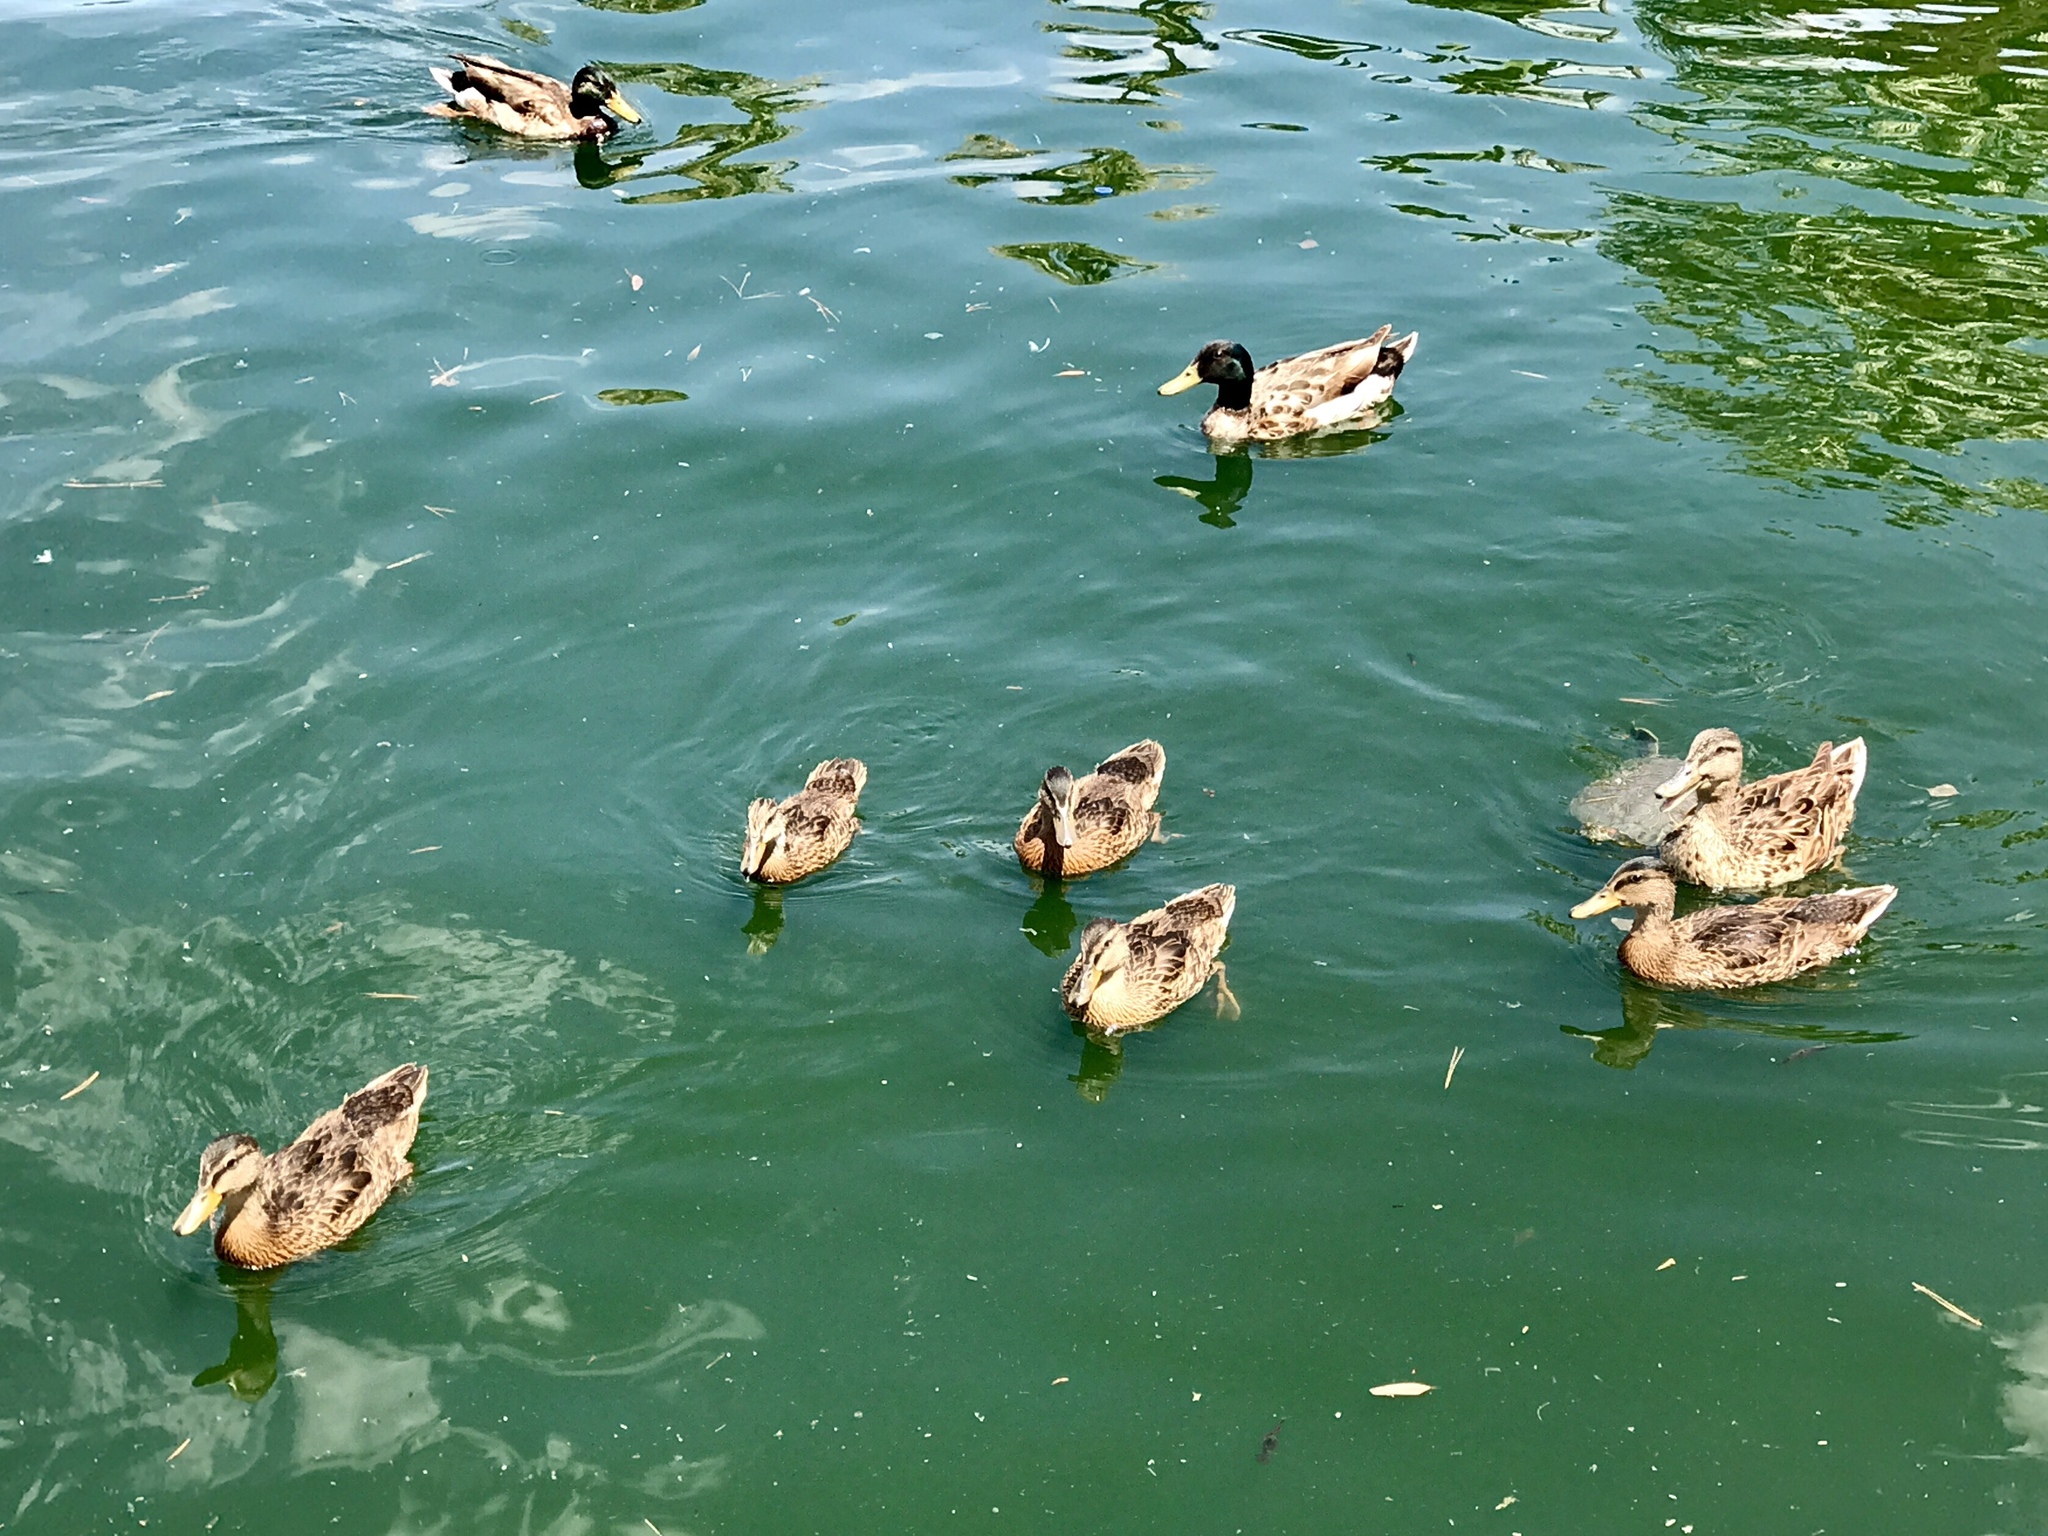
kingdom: Animalia
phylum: Chordata
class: Aves
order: Anseriformes
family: Anatidae
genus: Anas
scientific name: Anas platyrhynchos
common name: Mallard
